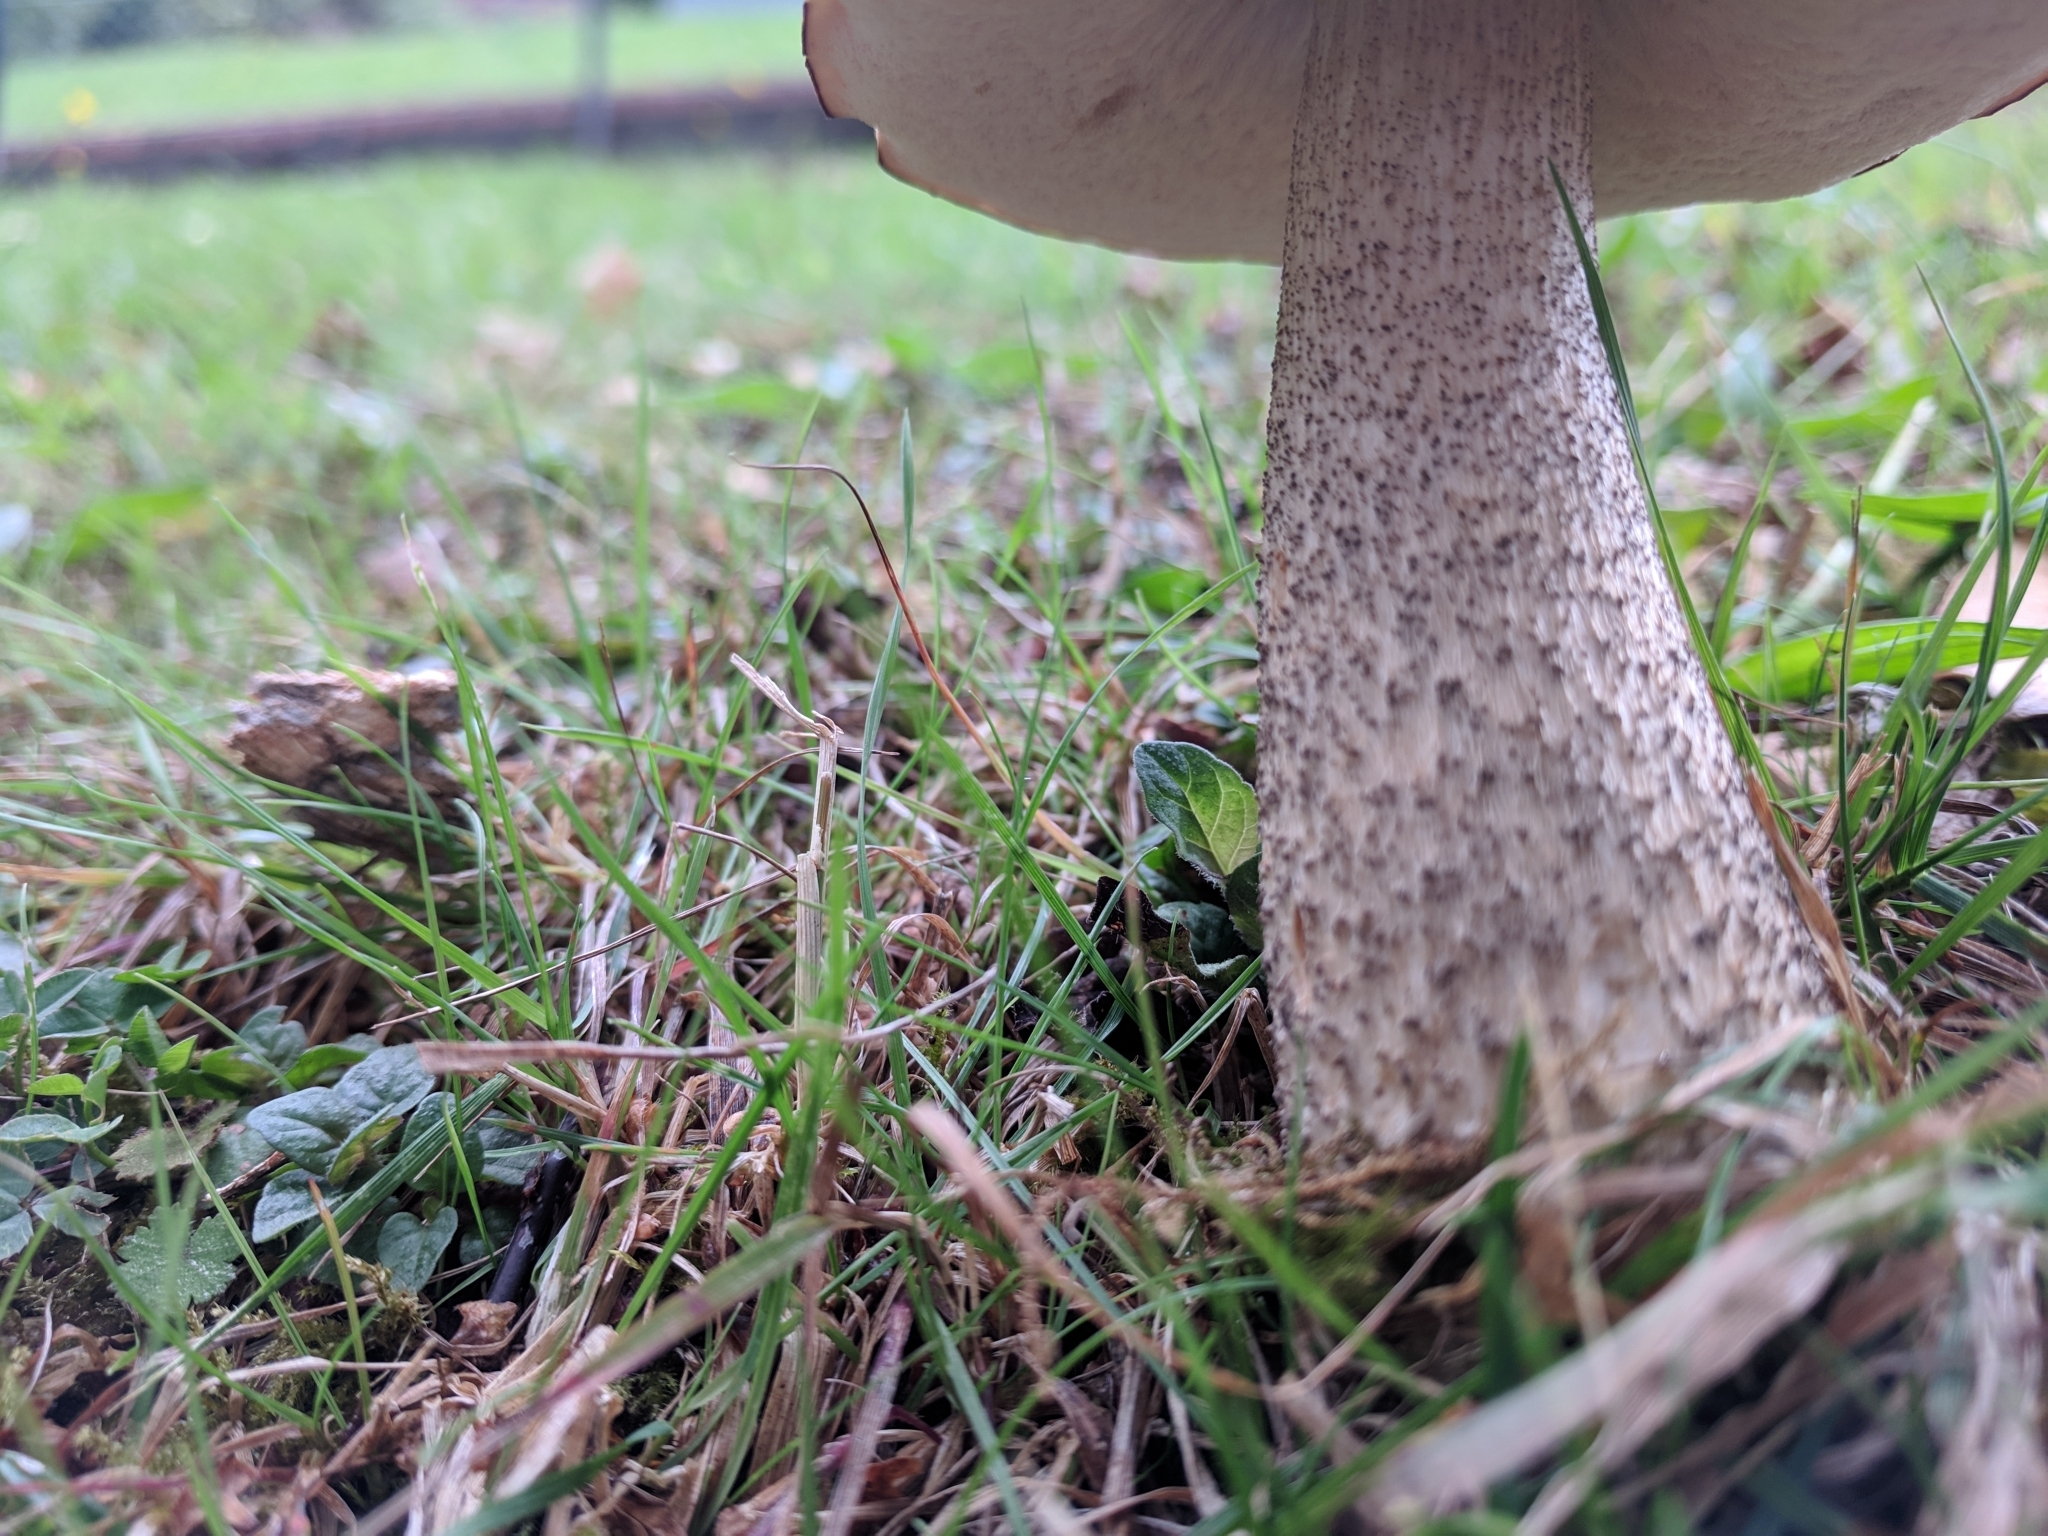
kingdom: Fungi
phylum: Basidiomycota
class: Agaricomycetes
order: Boletales
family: Boletaceae
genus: Leccinum
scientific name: Leccinum scabrum
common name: Blushing bolete
